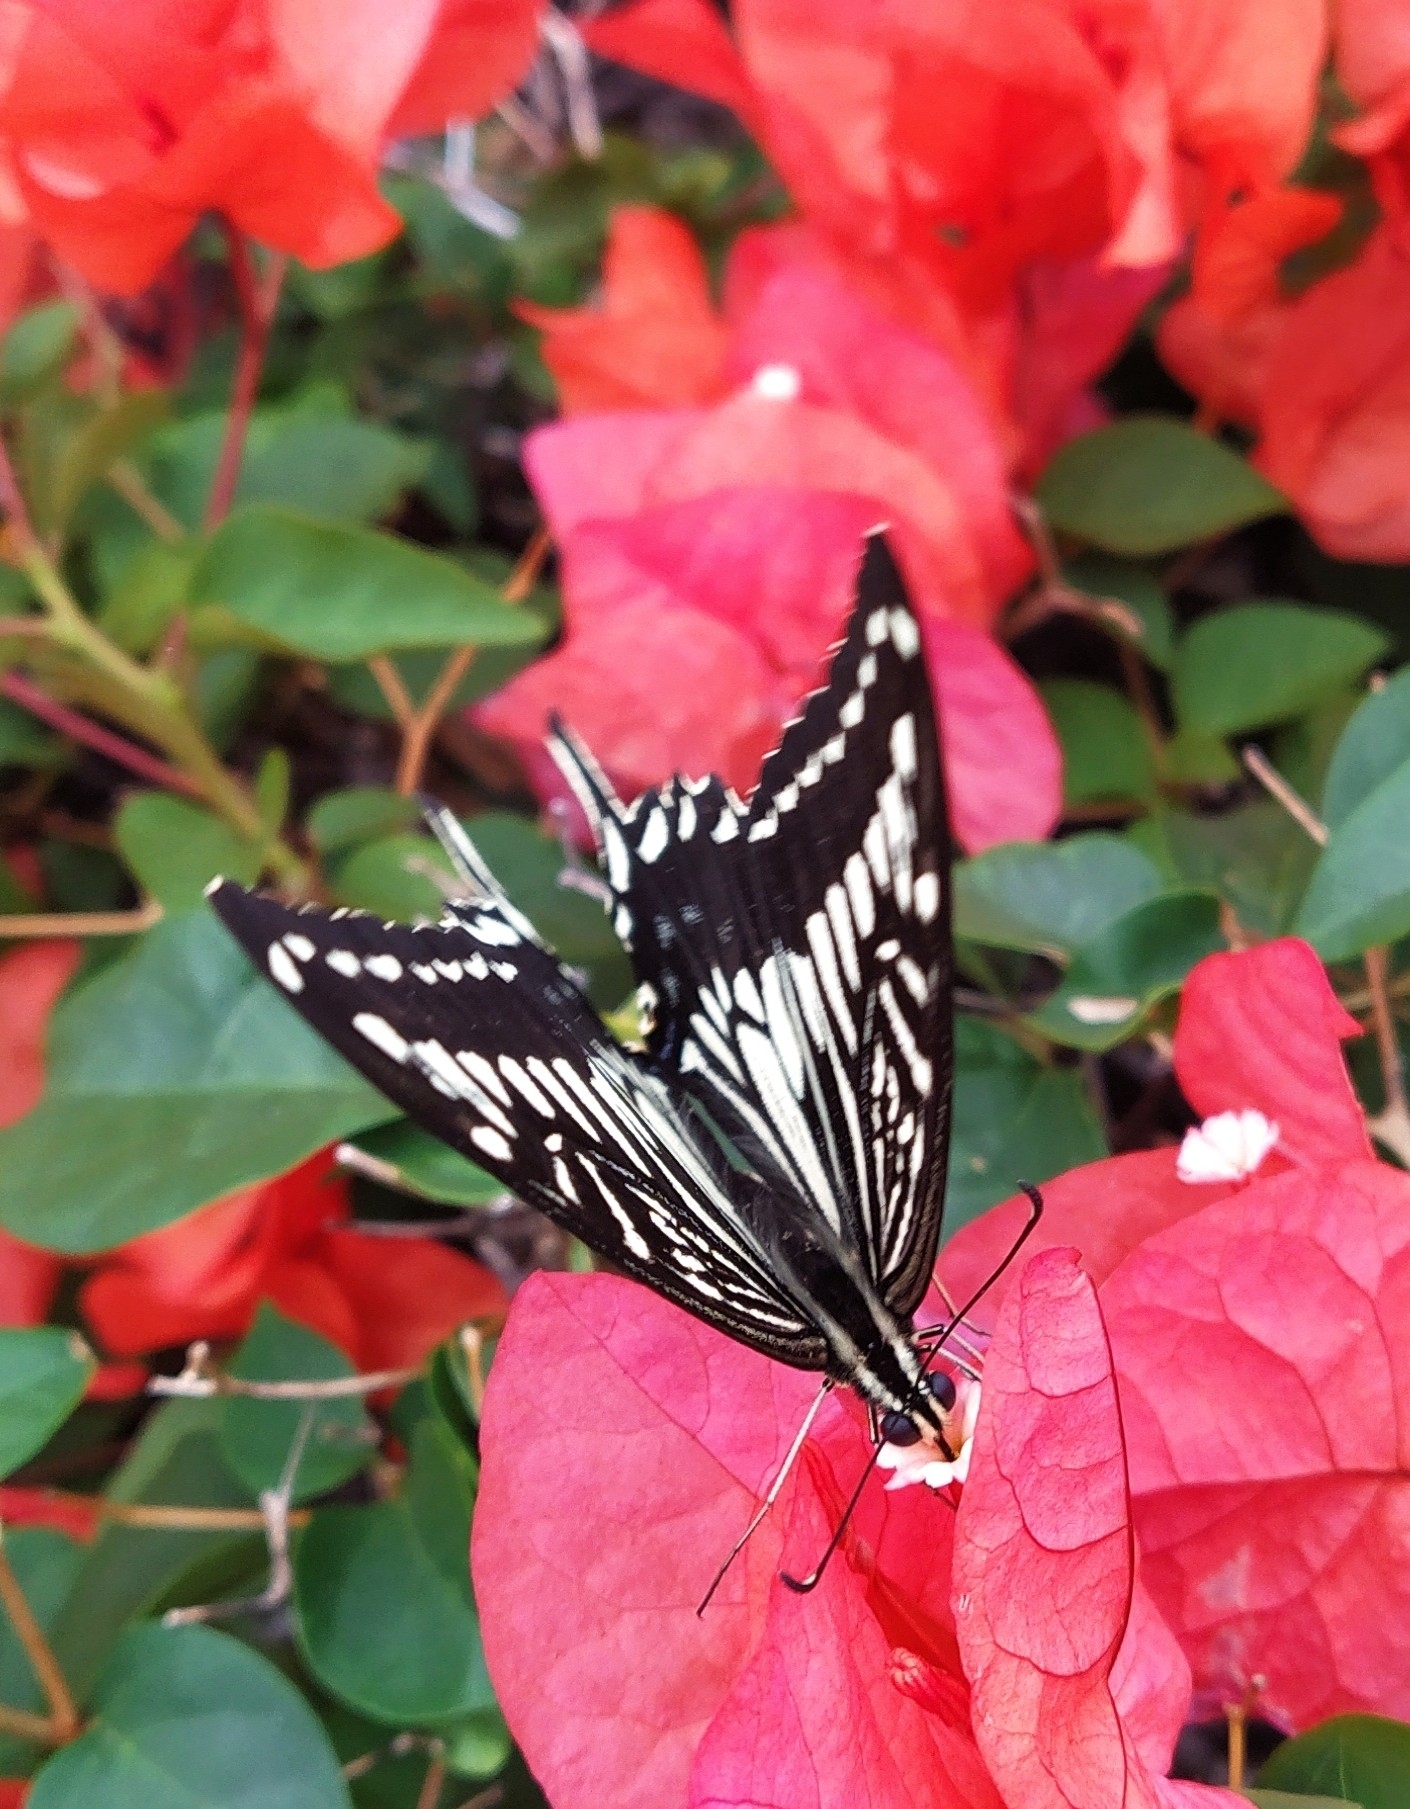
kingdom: Animalia
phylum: Arthropoda
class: Insecta
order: Lepidoptera
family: Papilionidae
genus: Papilio
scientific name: Papilio xuthus
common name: Asian swallowtail
